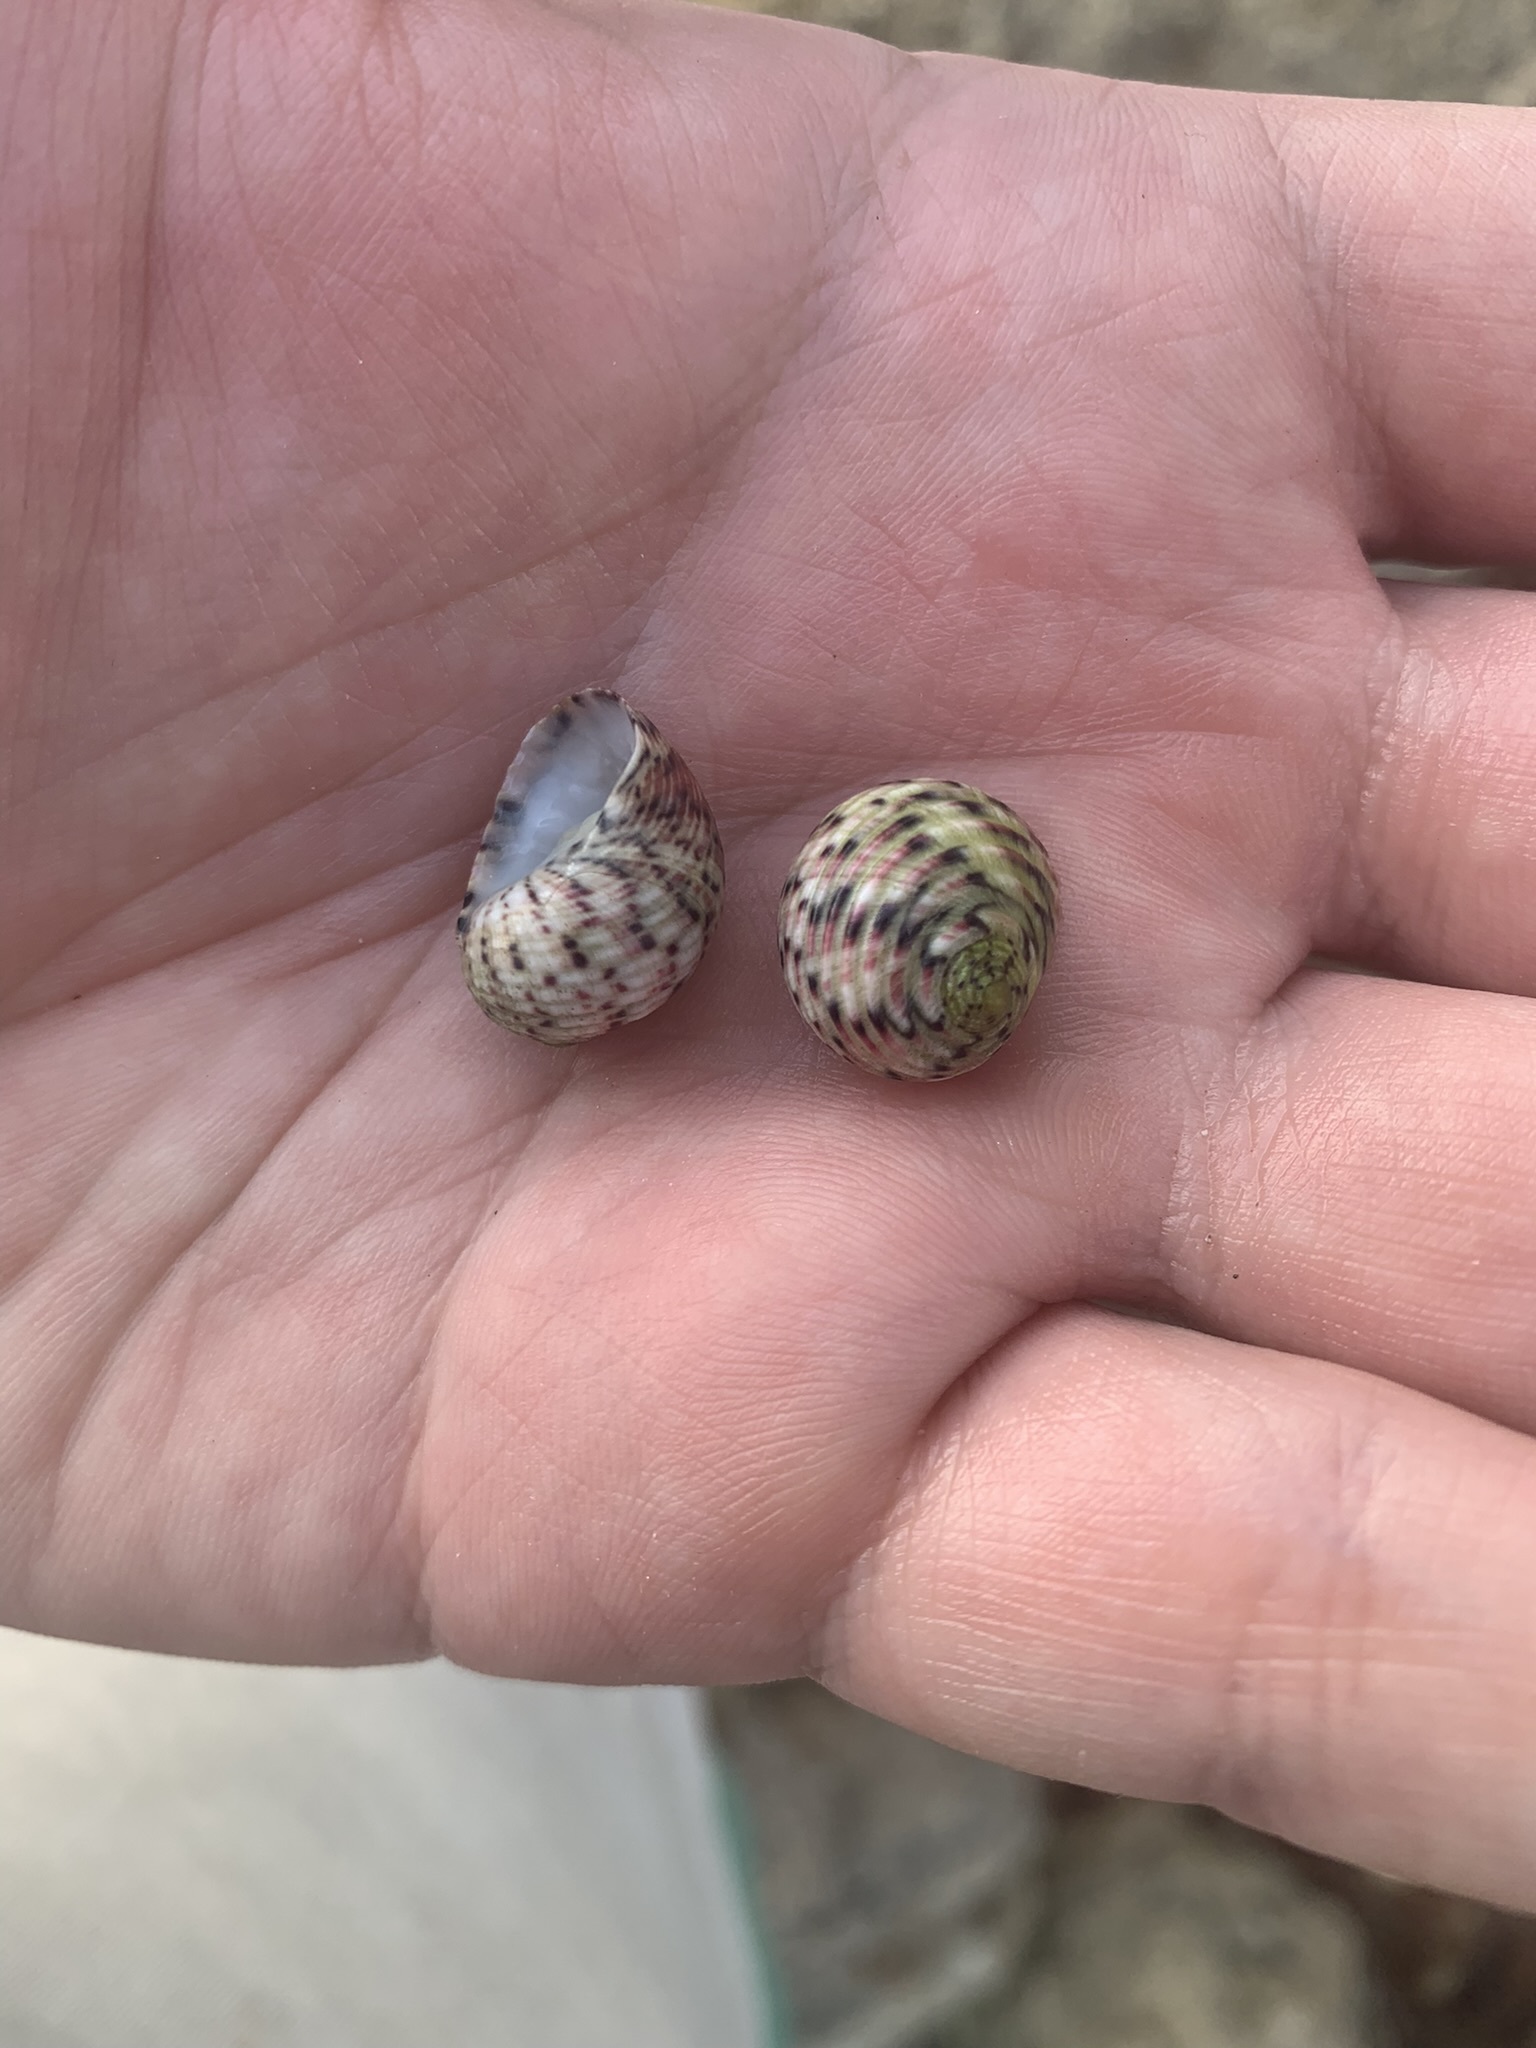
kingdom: Animalia
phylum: Mollusca
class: Gastropoda
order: Cycloneritida
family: Neritidae
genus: Nerita
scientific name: Nerita versicolor
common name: Four-tooth nerite
